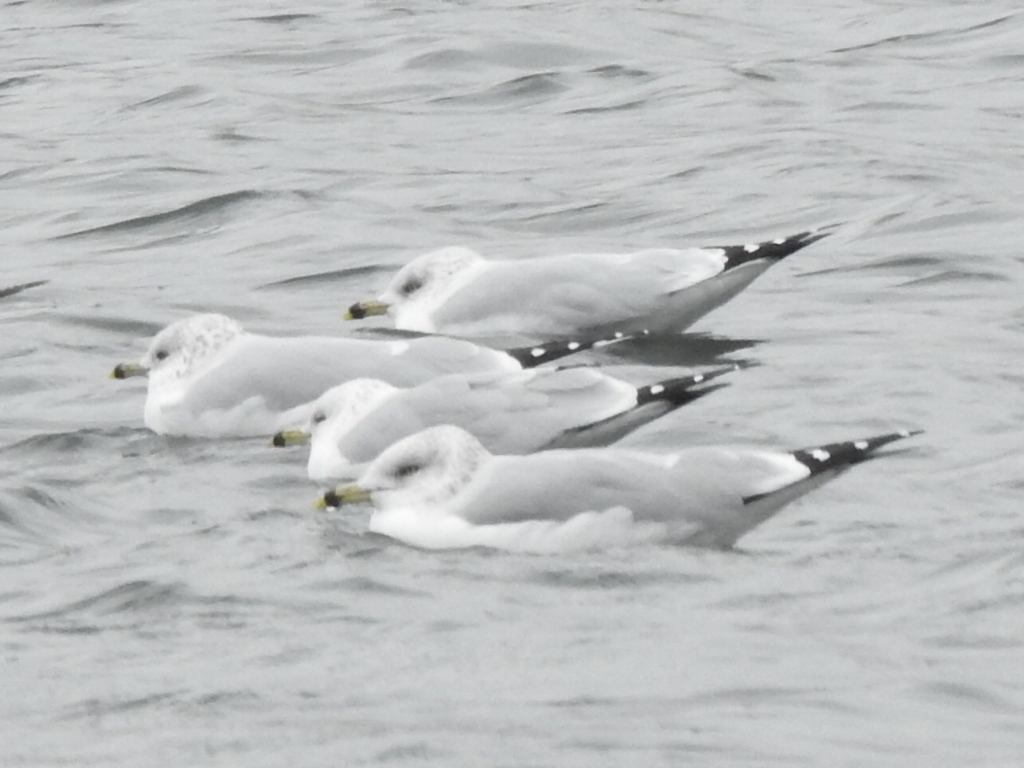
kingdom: Animalia
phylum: Chordata
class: Aves
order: Charadriiformes
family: Laridae
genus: Larus
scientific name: Larus delawarensis
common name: Ring-billed gull
